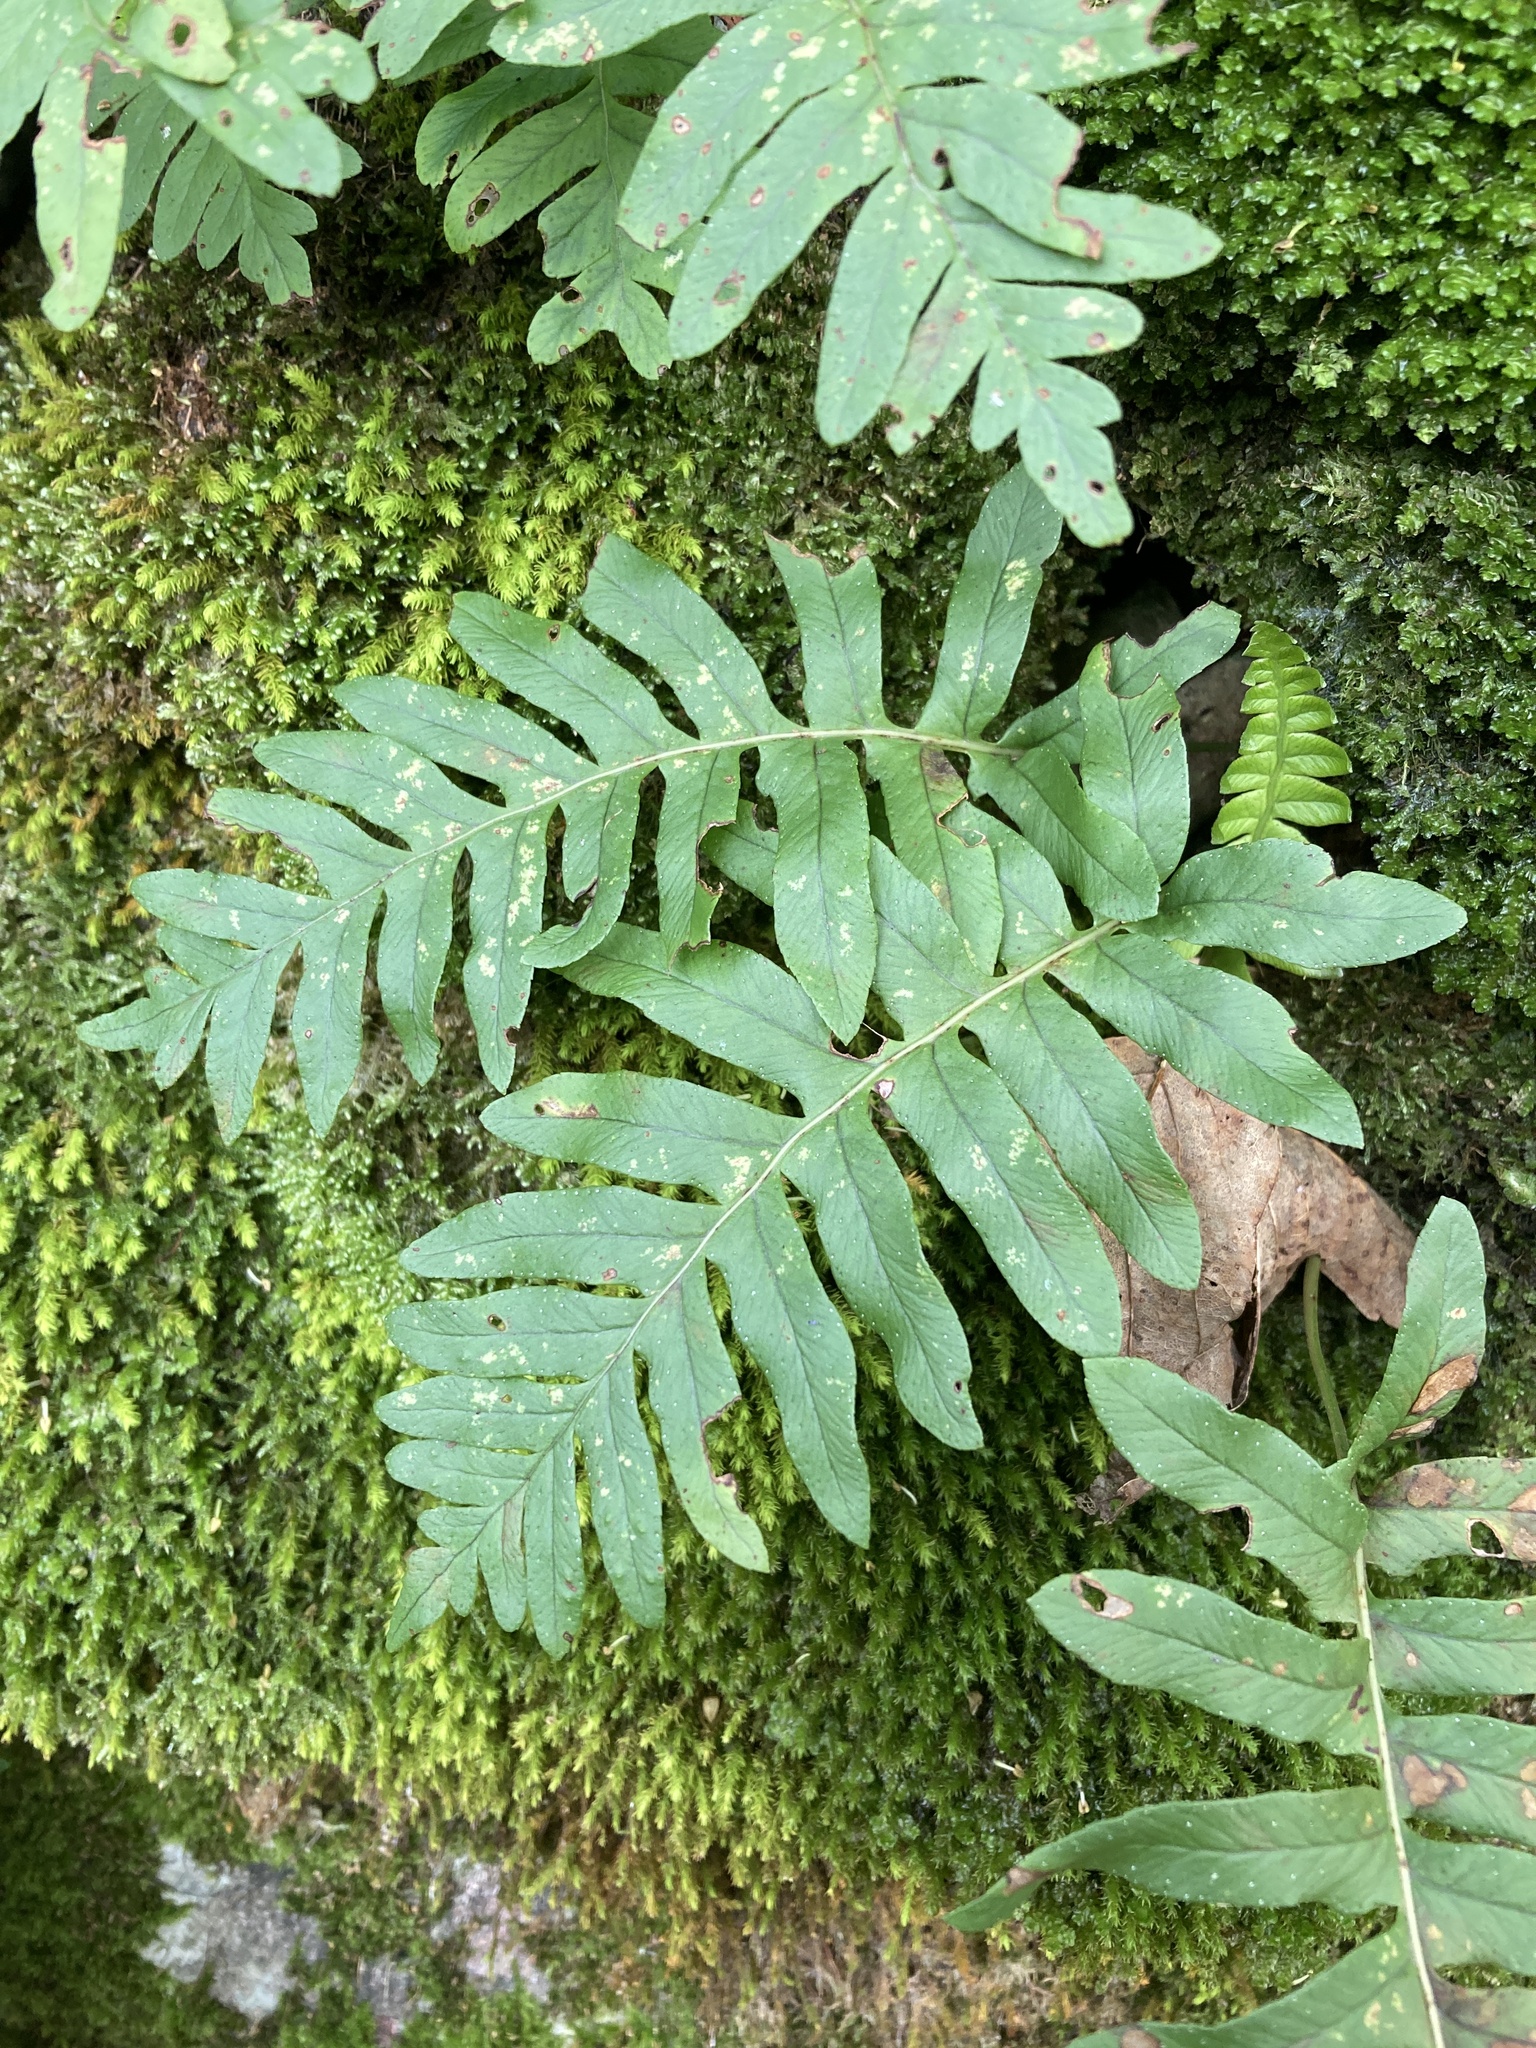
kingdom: Plantae
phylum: Tracheophyta
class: Polypodiopsida
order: Polypodiales
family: Polypodiaceae
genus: Polypodium
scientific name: Polypodium
